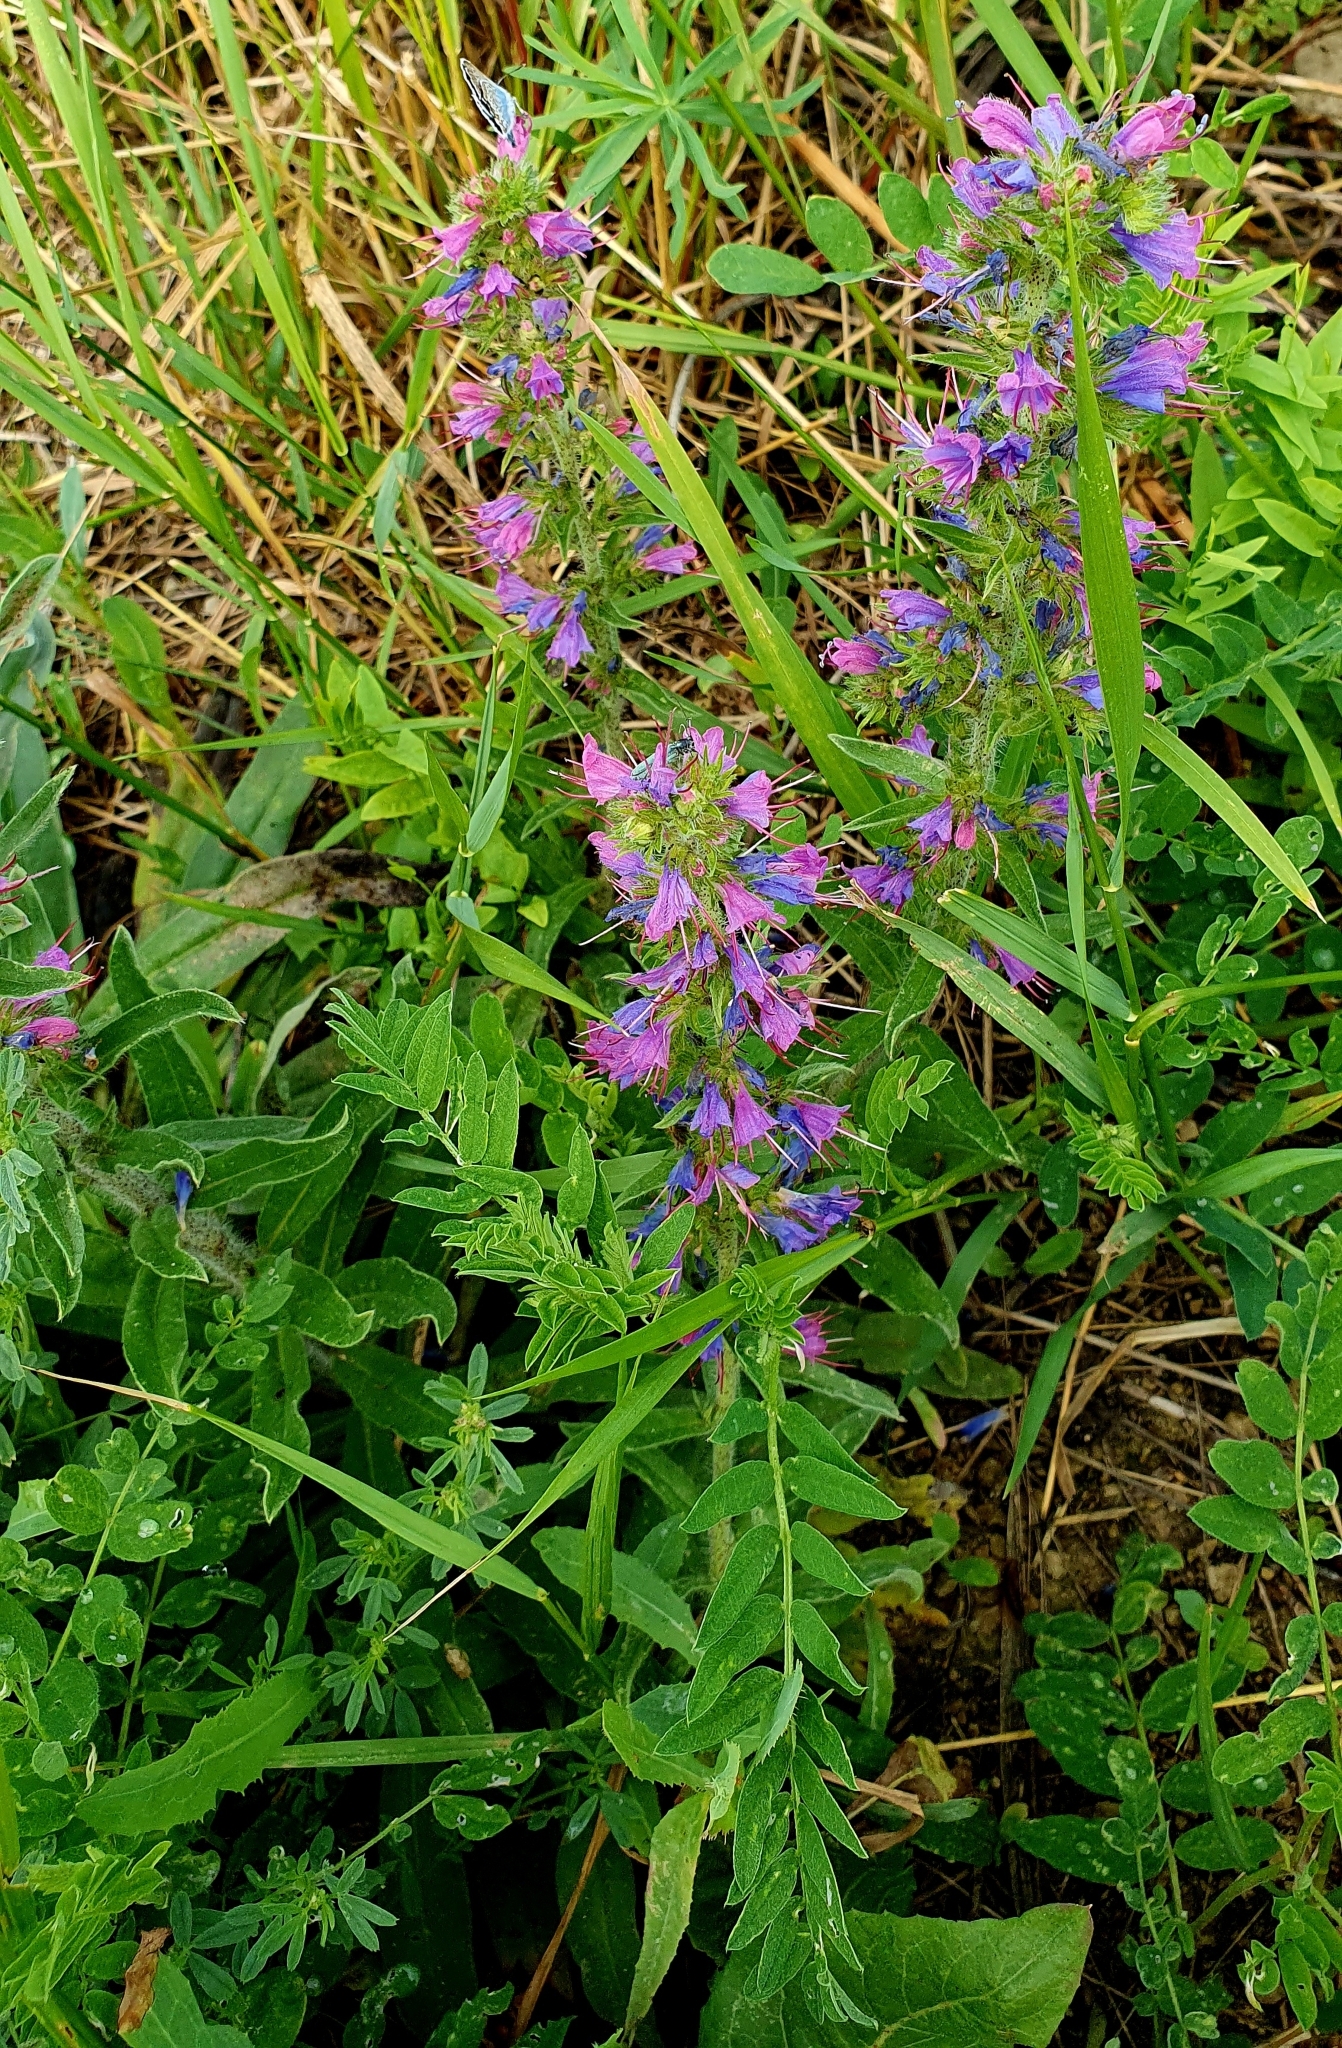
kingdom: Plantae
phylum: Tracheophyta
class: Magnoliopsida
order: Boraginales
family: Boraginaceae
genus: Echium
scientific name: Echium vulgare
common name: Common viper's bugloss
